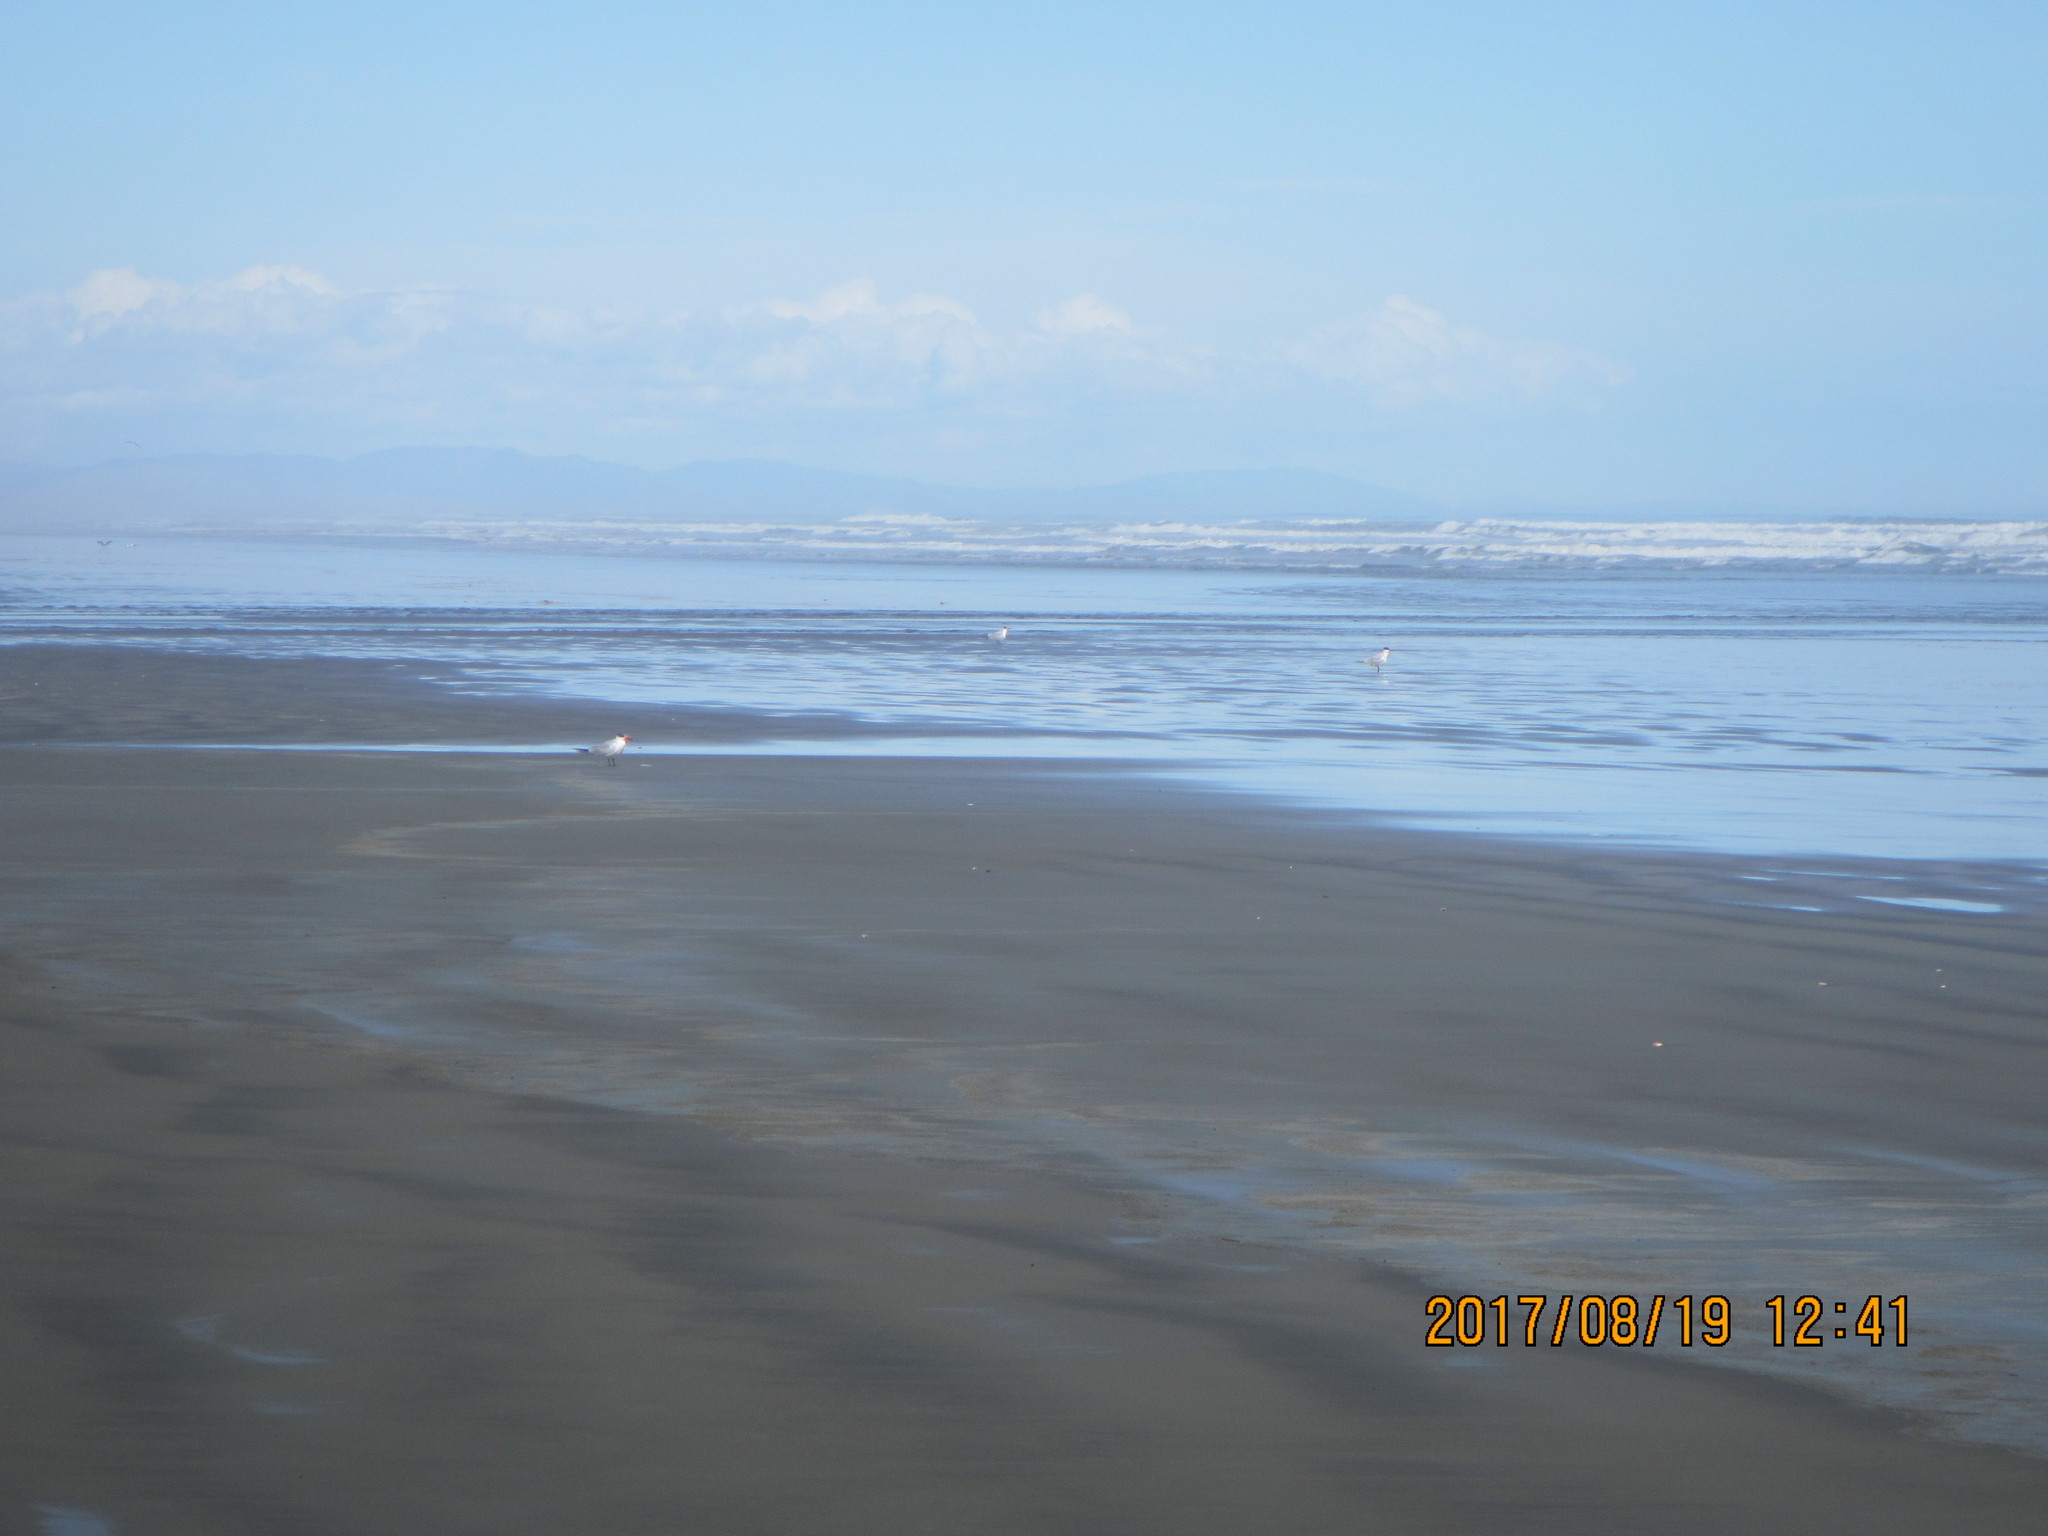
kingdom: Animalia
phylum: Chordata
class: Aves
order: Charadriiformes
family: Laridae
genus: Hydroprogne
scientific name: Hydroprogne caspia
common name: Caspian tern
